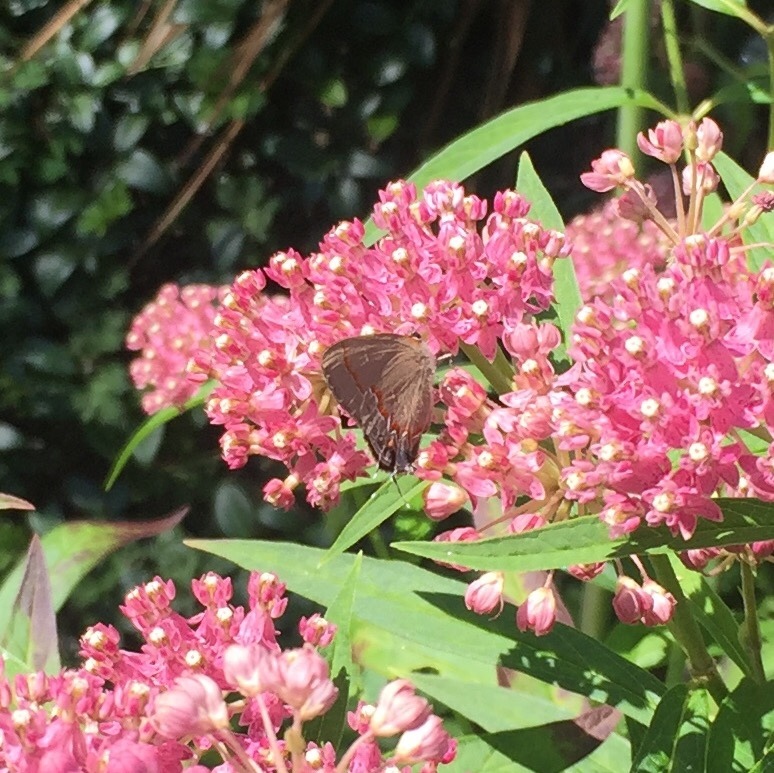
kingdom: Animalia
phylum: Arthropoda
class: Insecta
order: Lepidoptera
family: Lycaenidae
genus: Calycopis
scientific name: Calycopis cecrops
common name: Red-banded hairstreak
